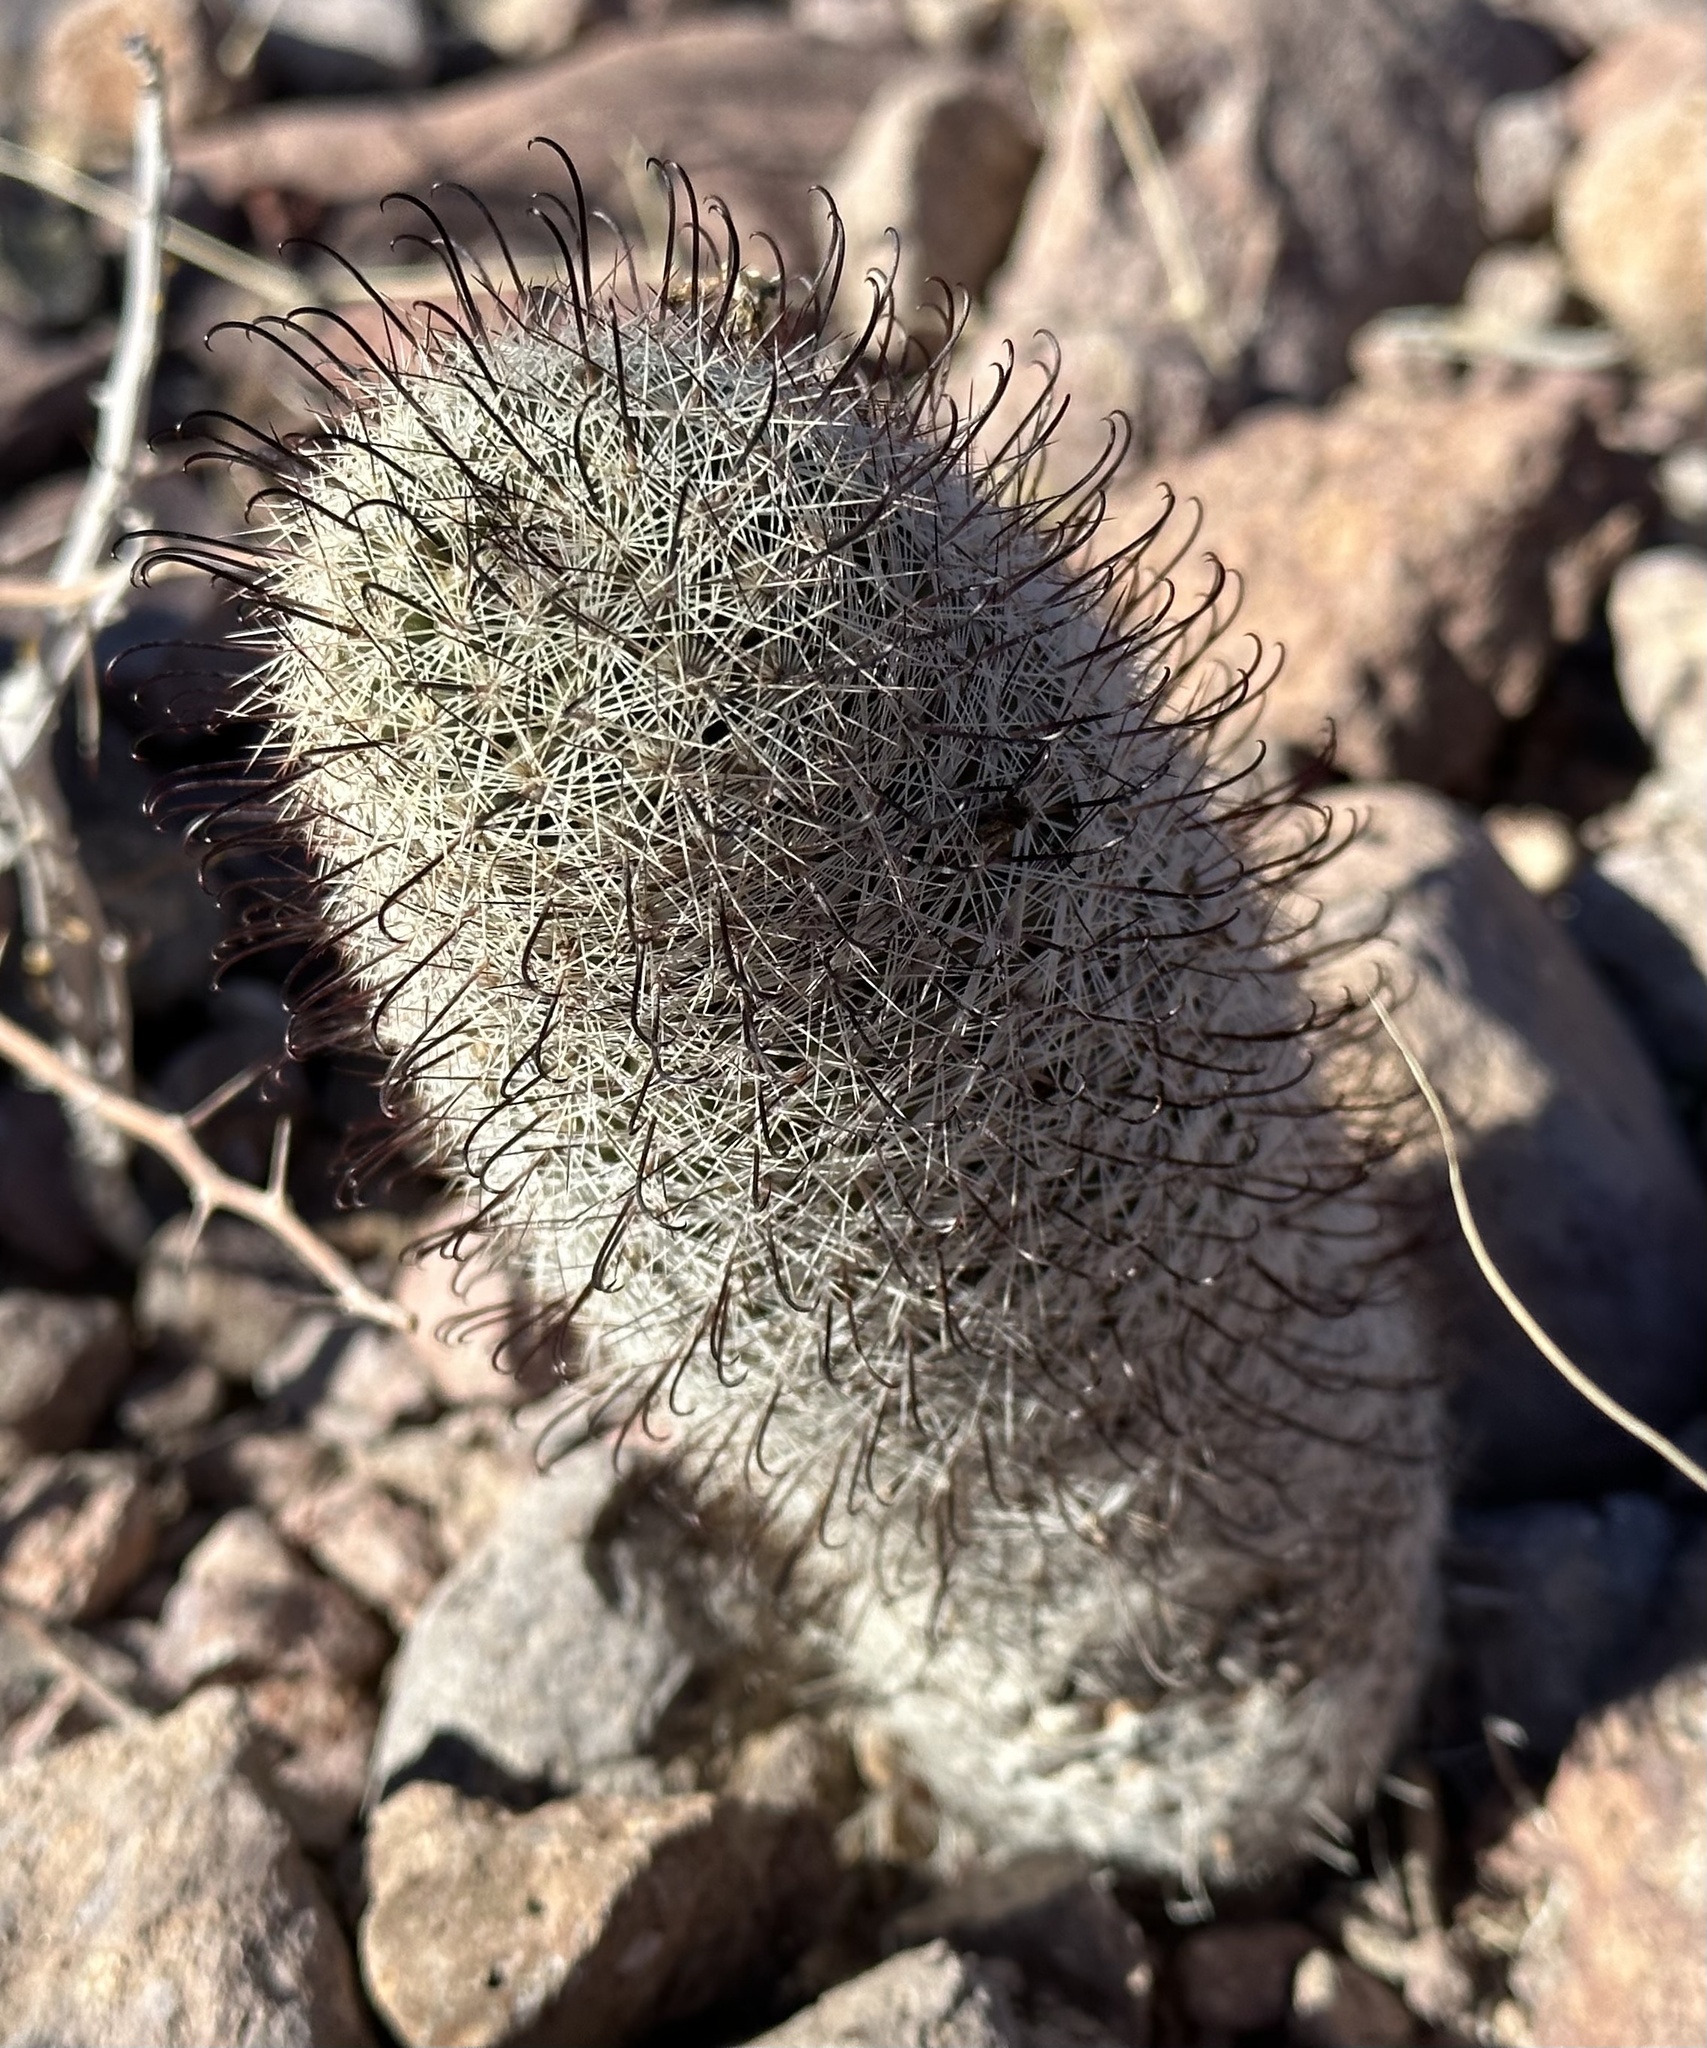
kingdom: Plantae
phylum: Tracheophyta
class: Magnoliopsida
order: Caryophyllales
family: Cactaceae
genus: Cochemiea
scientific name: Cochemiea grahamii
